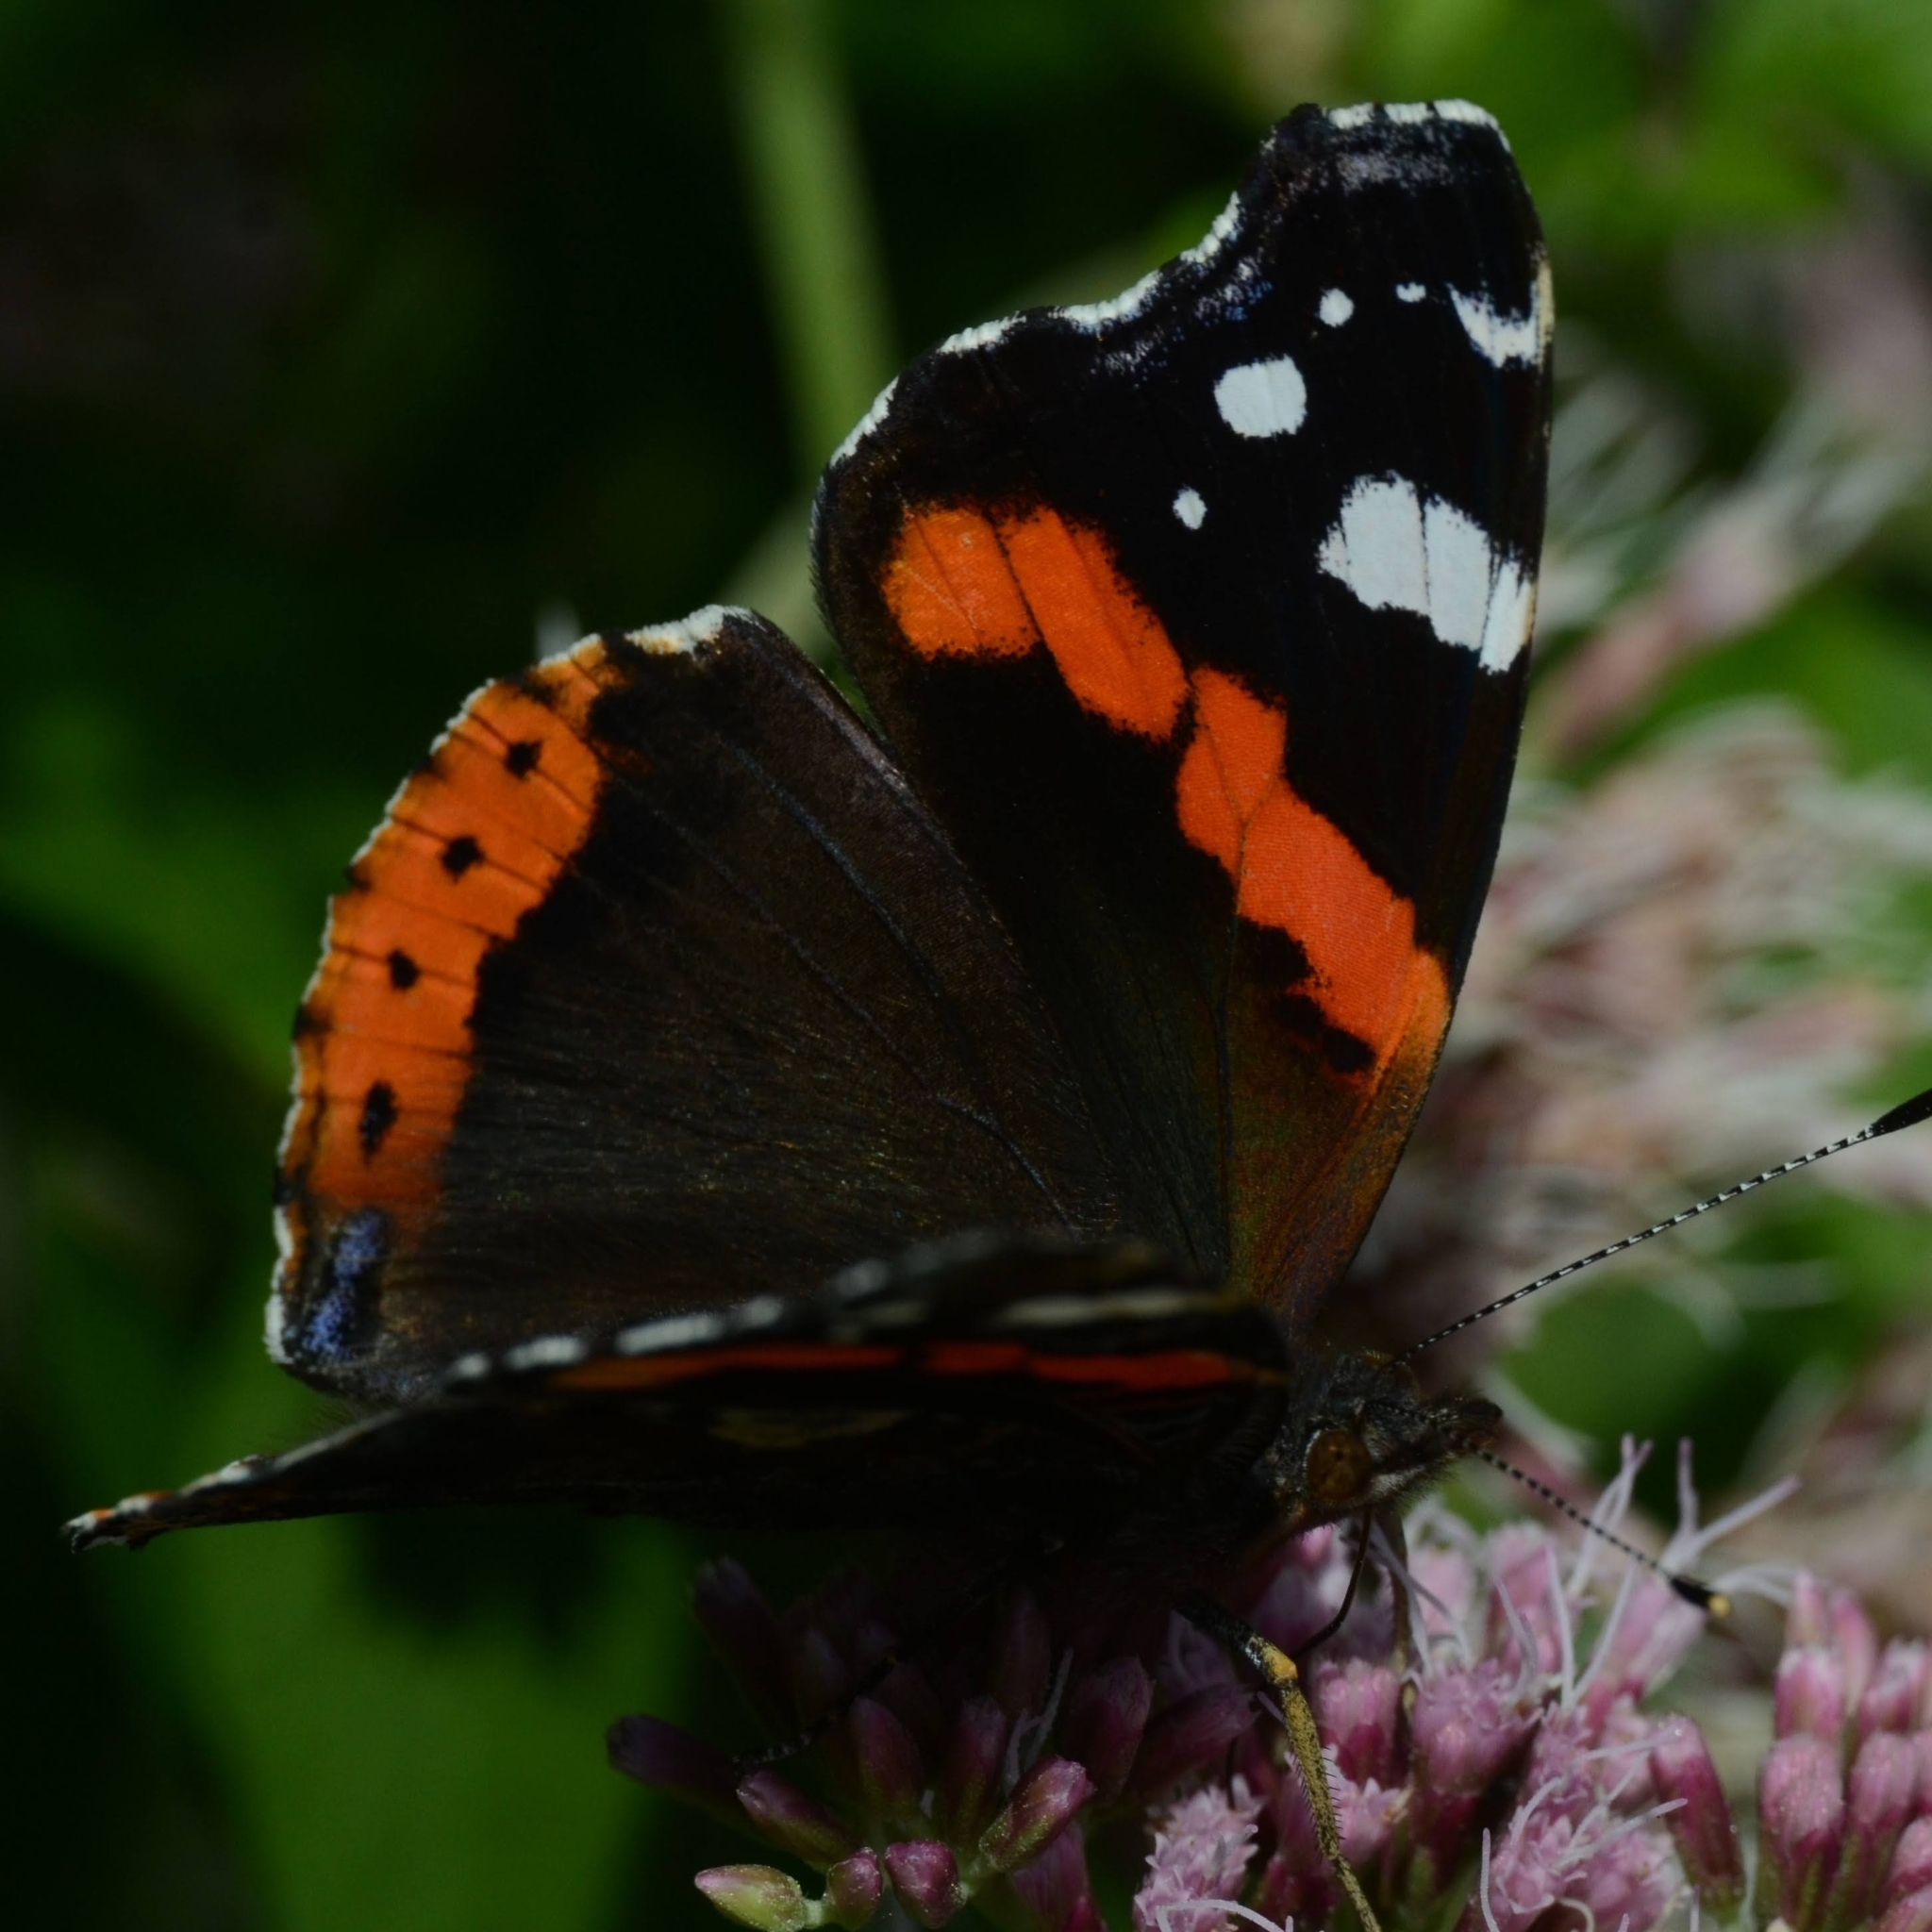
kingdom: Animalia
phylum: Arthropoda
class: Insecta
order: Lepidoptera
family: Nymphalidae
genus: Vanessa
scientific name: Vanessa atalanta
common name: Red admiral
